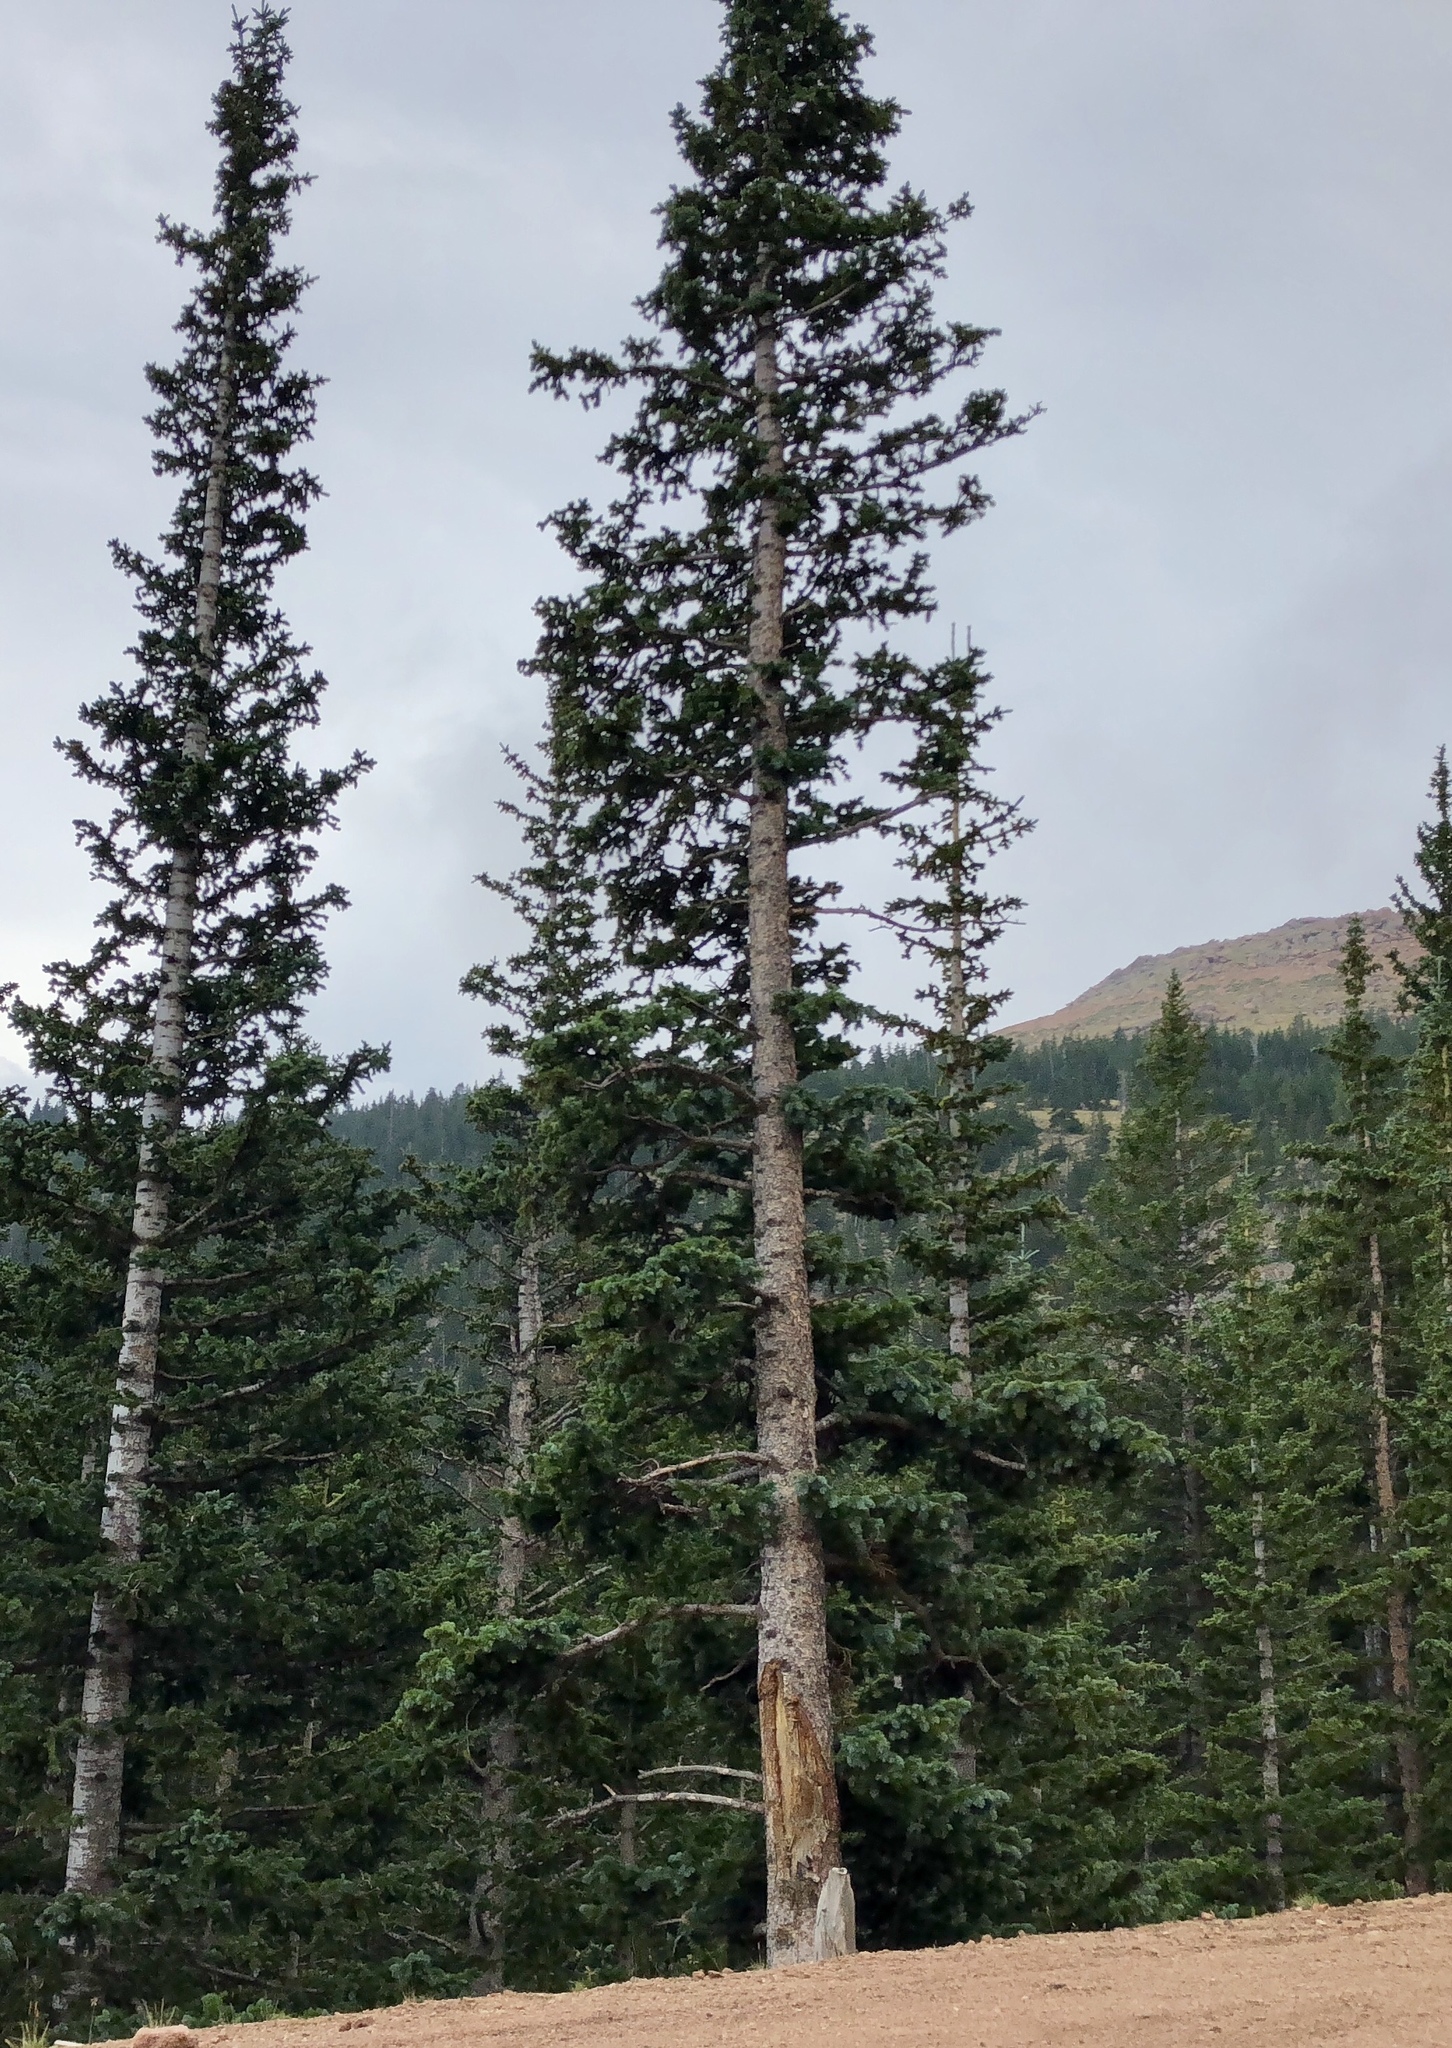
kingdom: Plantae
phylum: Tracheophyta
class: Pinopsida
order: Pinales
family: Pinaceae
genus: Picea
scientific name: Picea engelmannii
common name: Engelmann spruce
